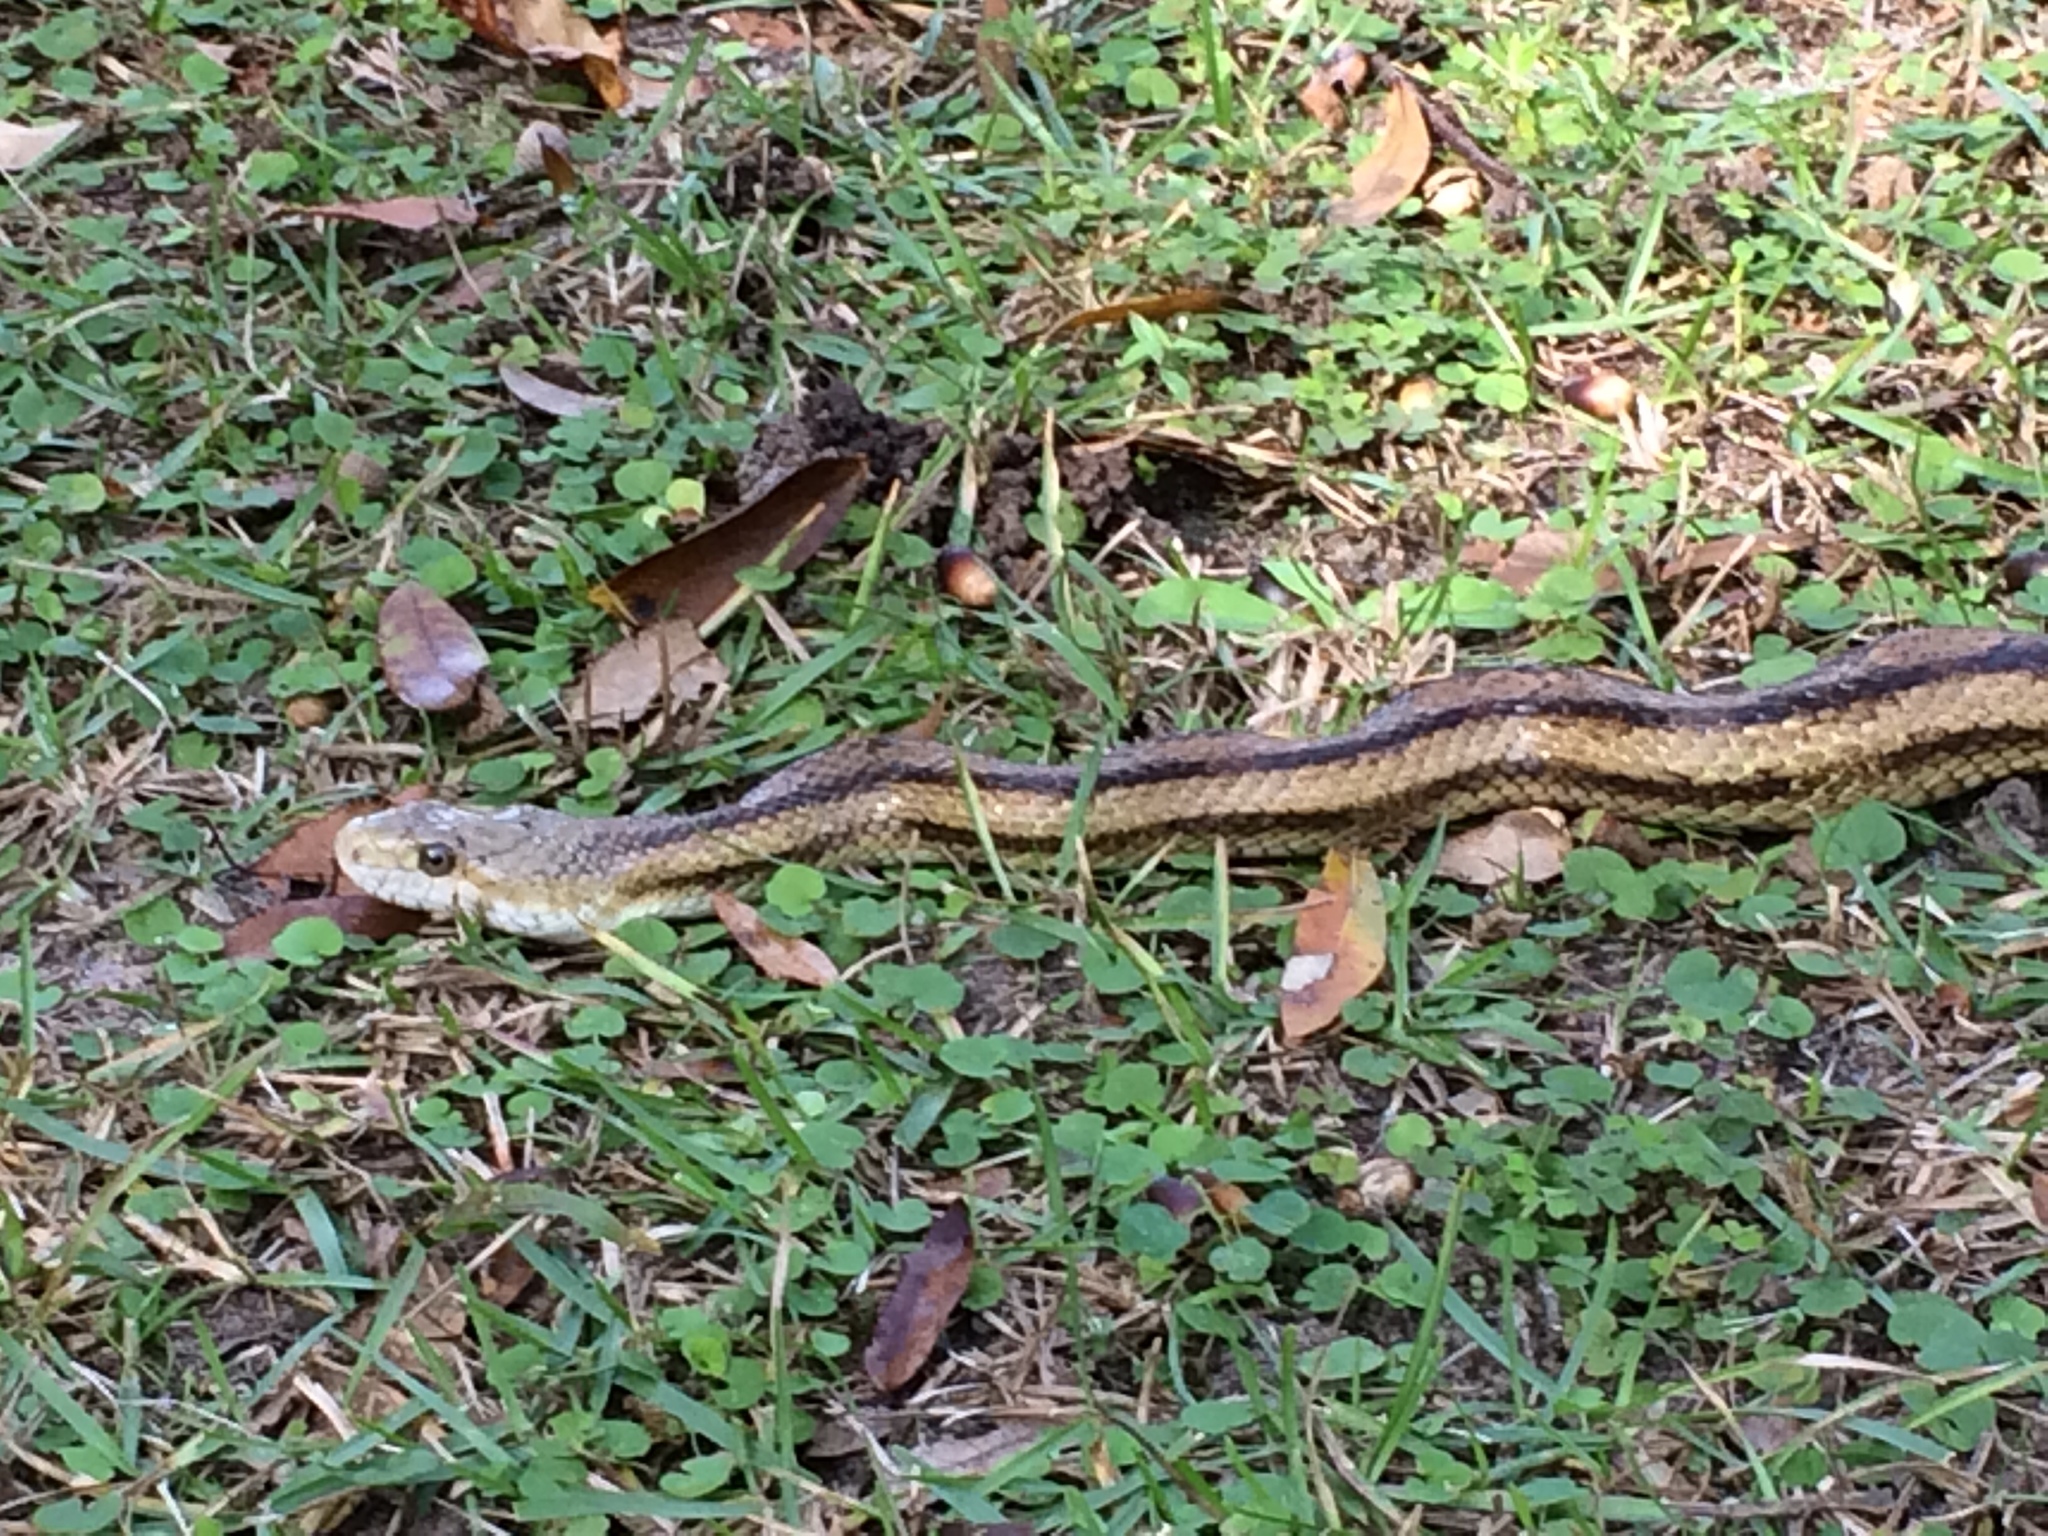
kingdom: Animalia
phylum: Chordata
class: Squamata
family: Colubridae
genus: Pantherophis
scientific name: Pantherophis alleghaniensis
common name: Eastern rat snake
